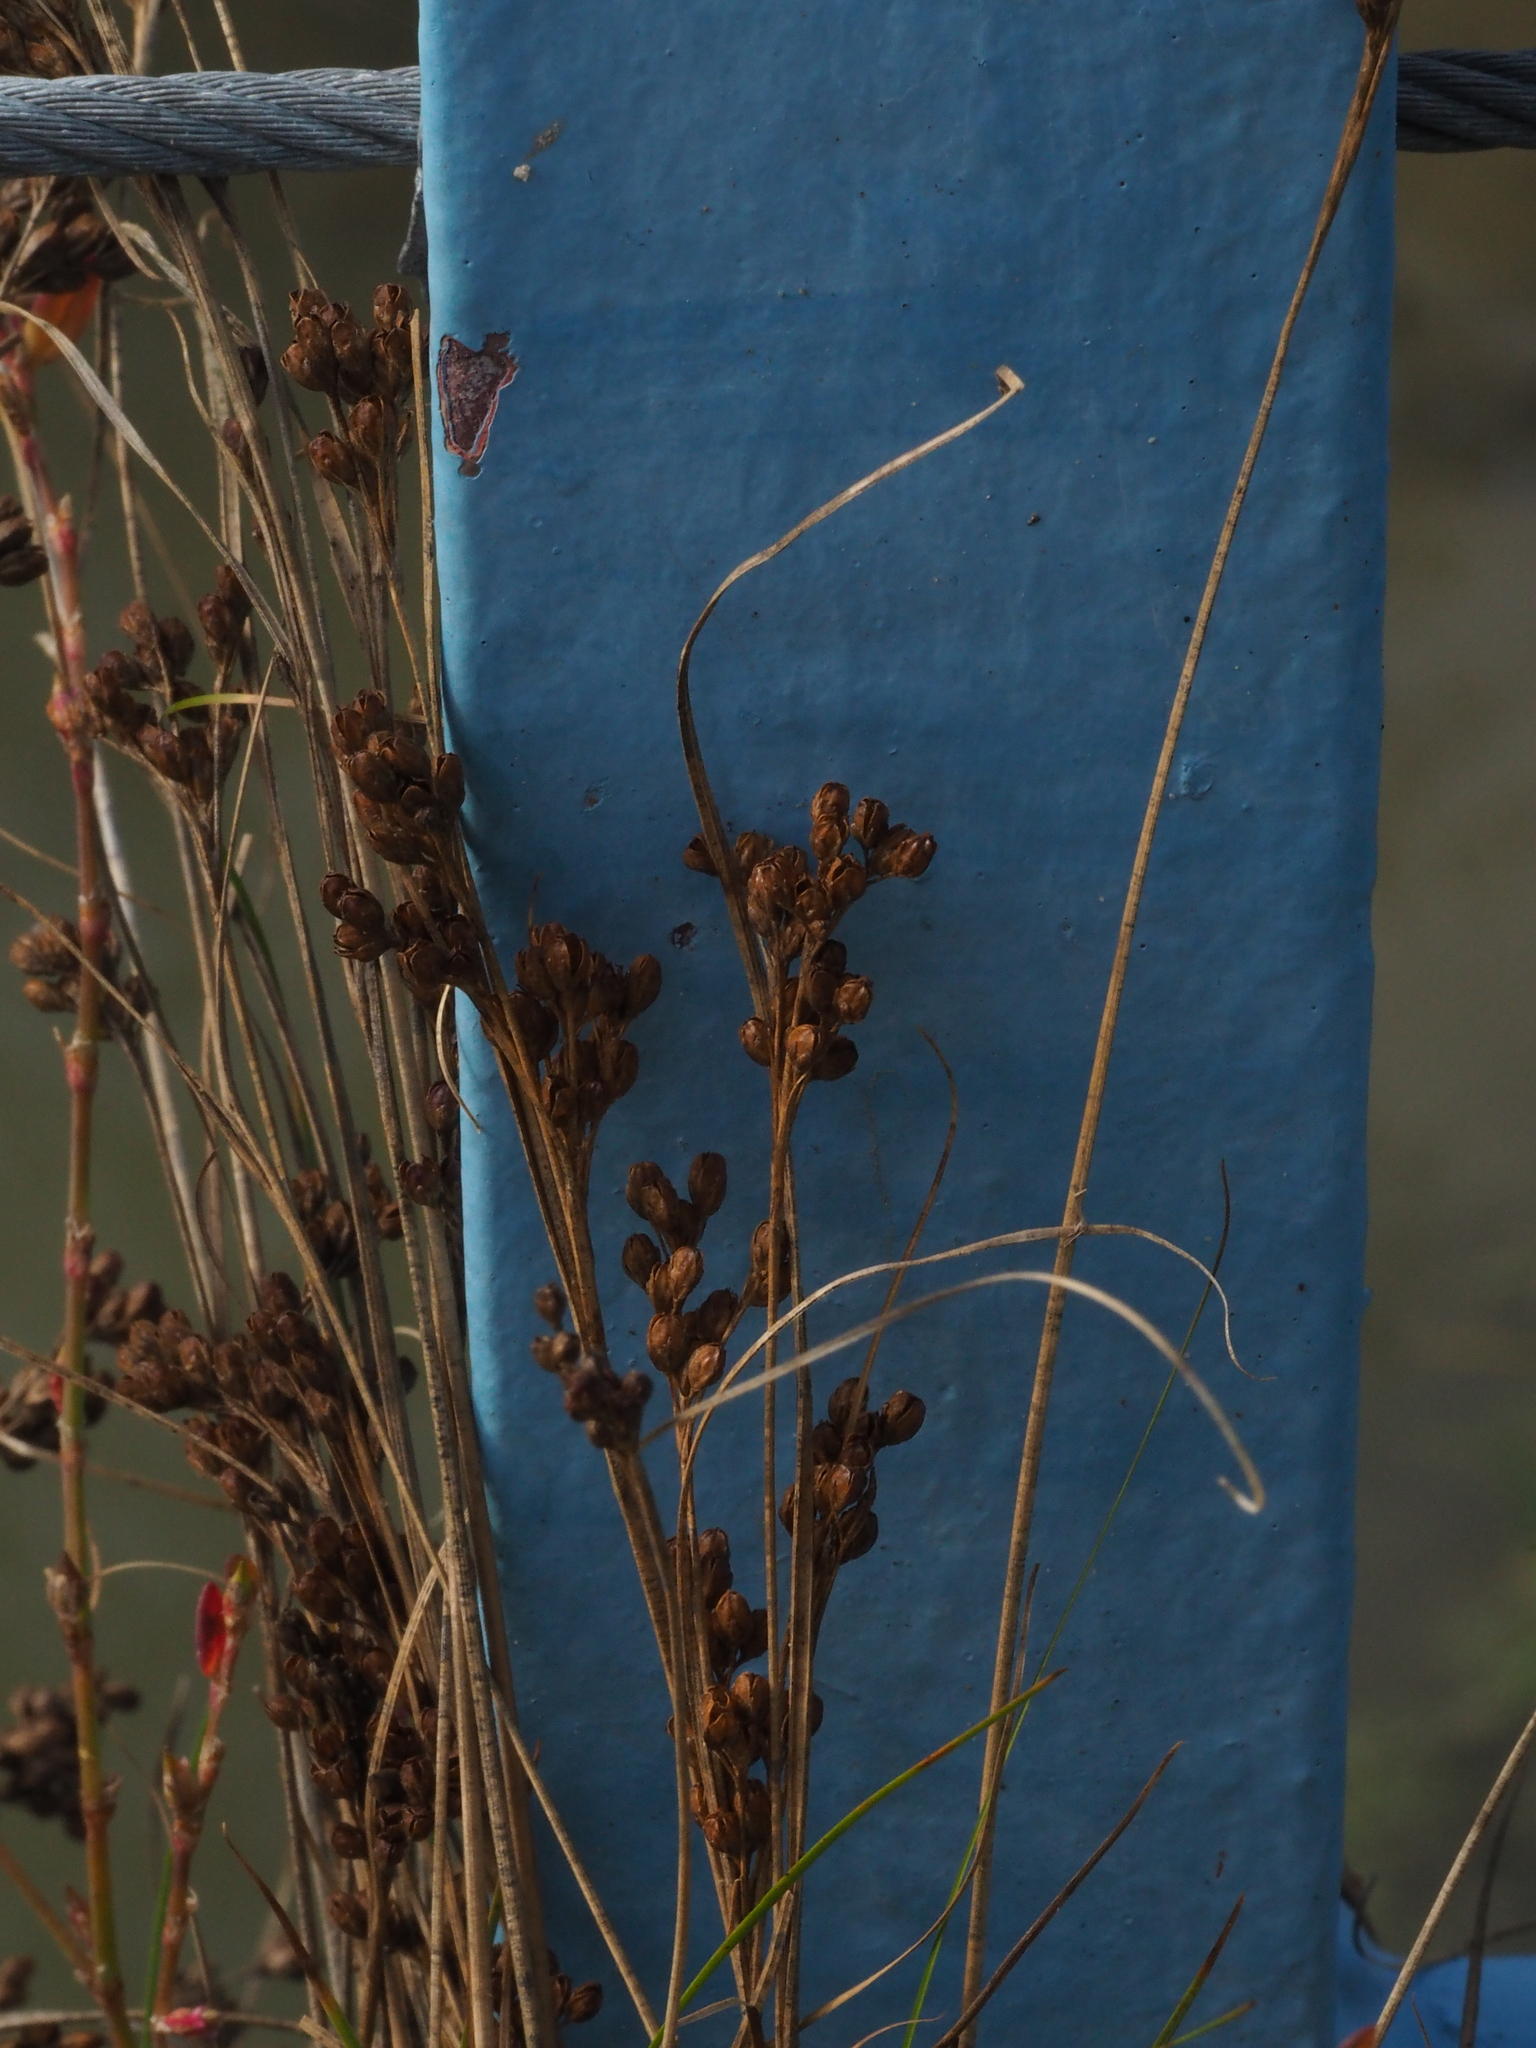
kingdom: Plantae
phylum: Tracheophyta
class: Liliopsida
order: Poales
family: Juncaceae
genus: Juncus
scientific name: Juncus compressus
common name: Round-fruited rush
